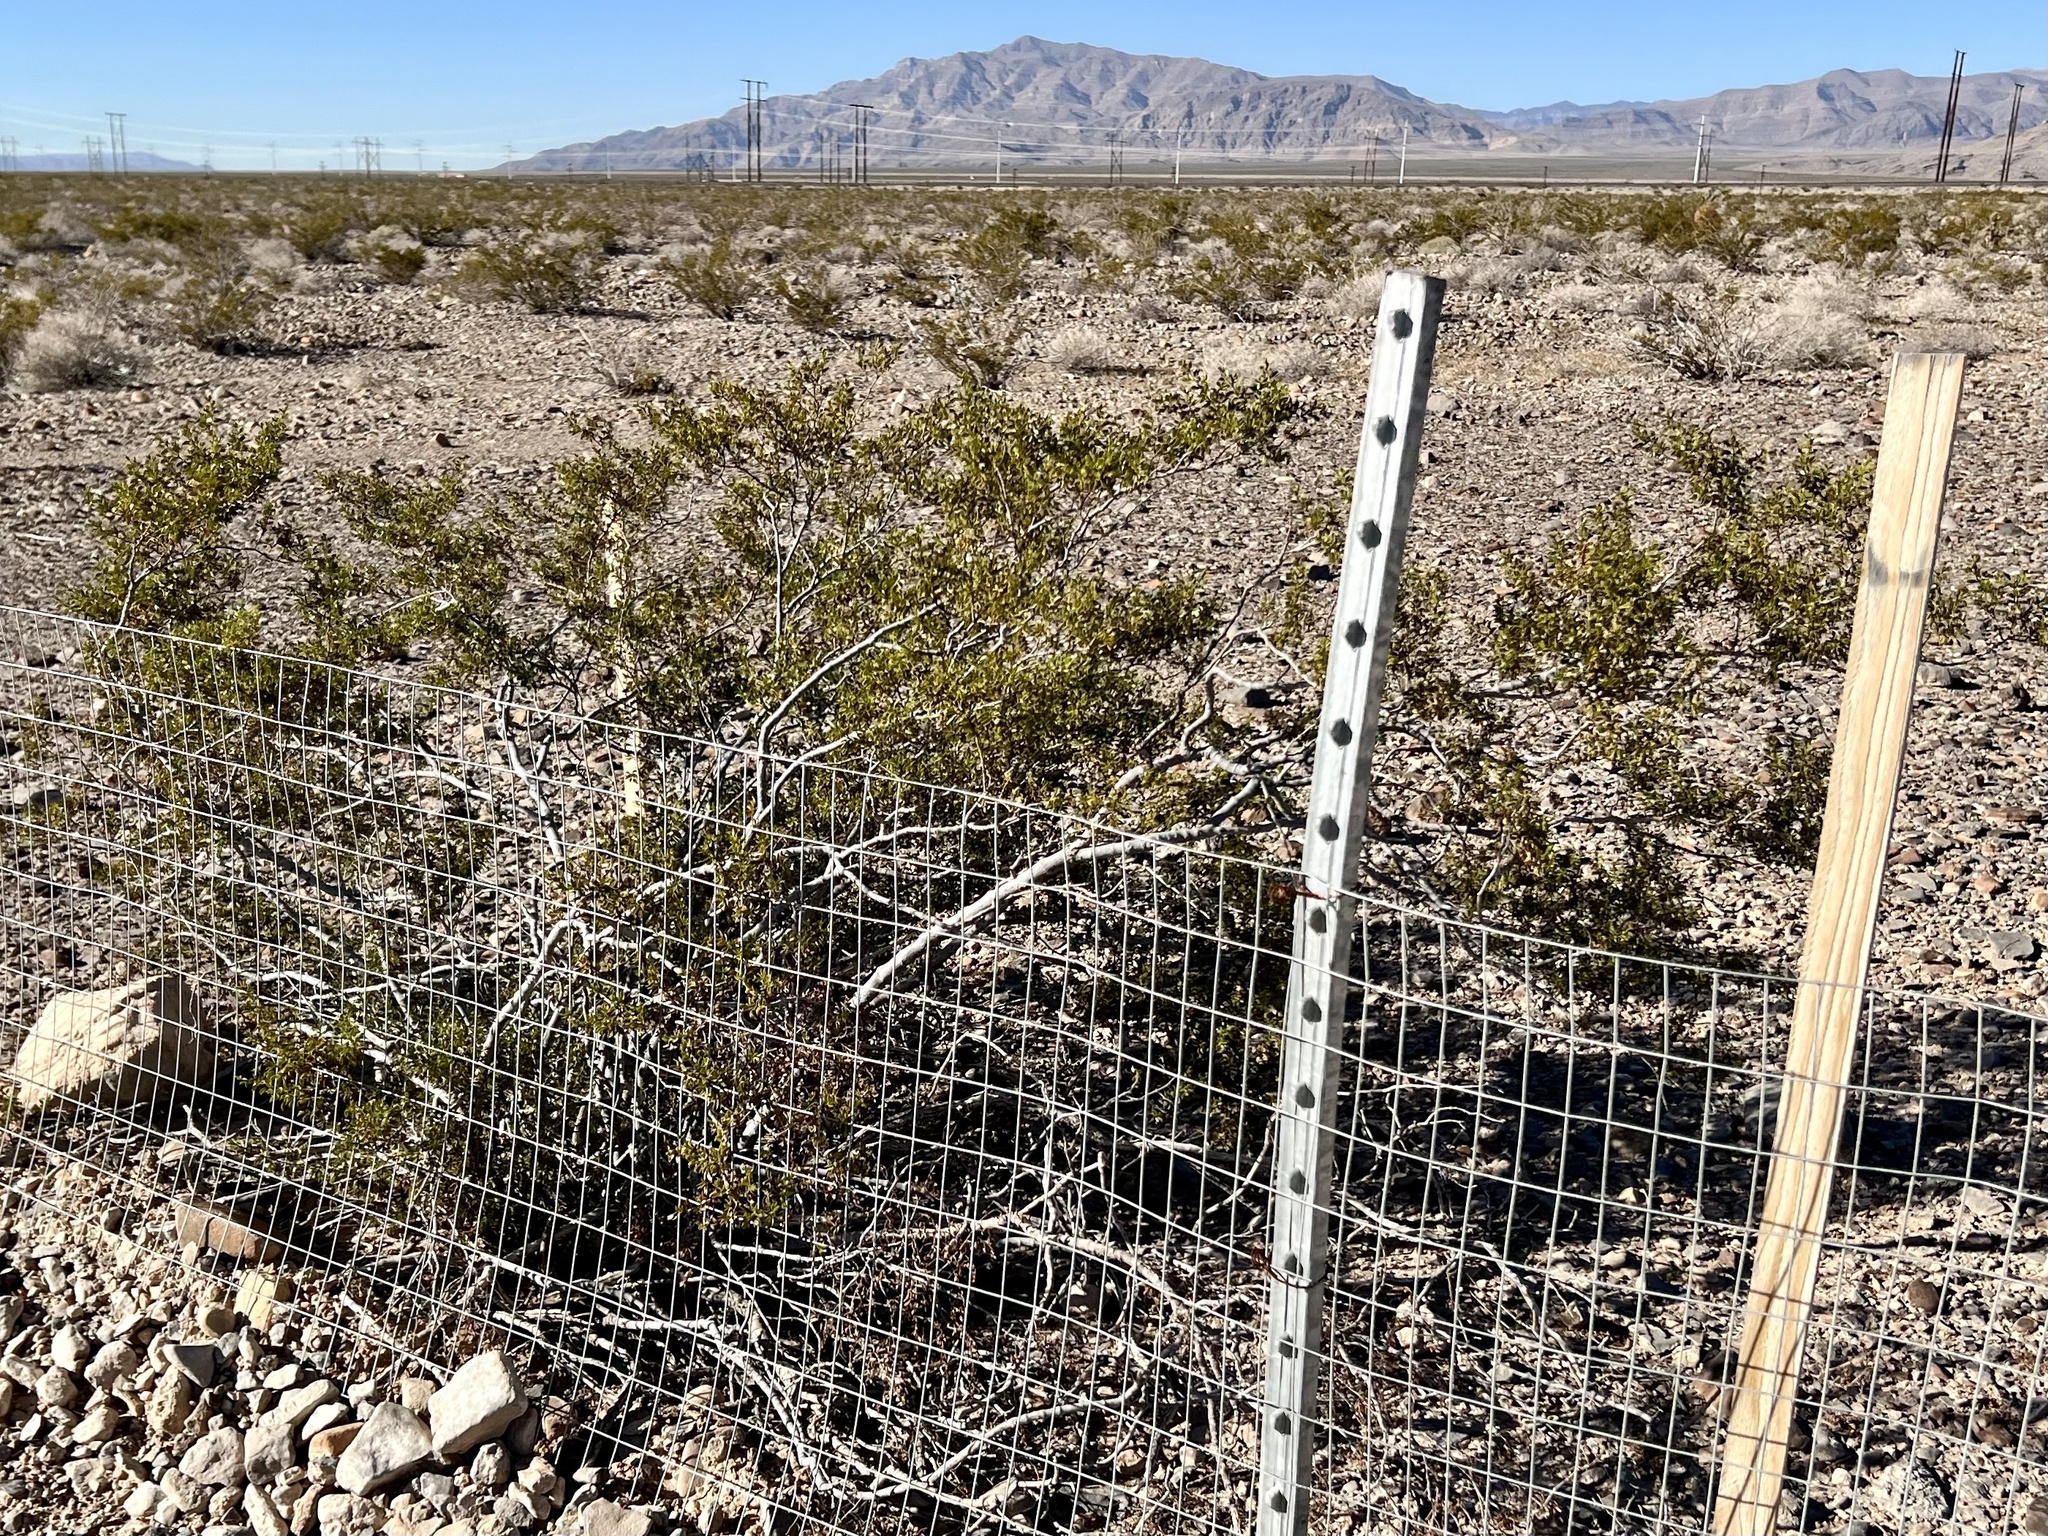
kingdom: Plantae
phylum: Tracheophyta
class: Magnoliopsida
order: Zygophyllales
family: Zygophyllaceae
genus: Larrea
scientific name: Larrea tridentata
